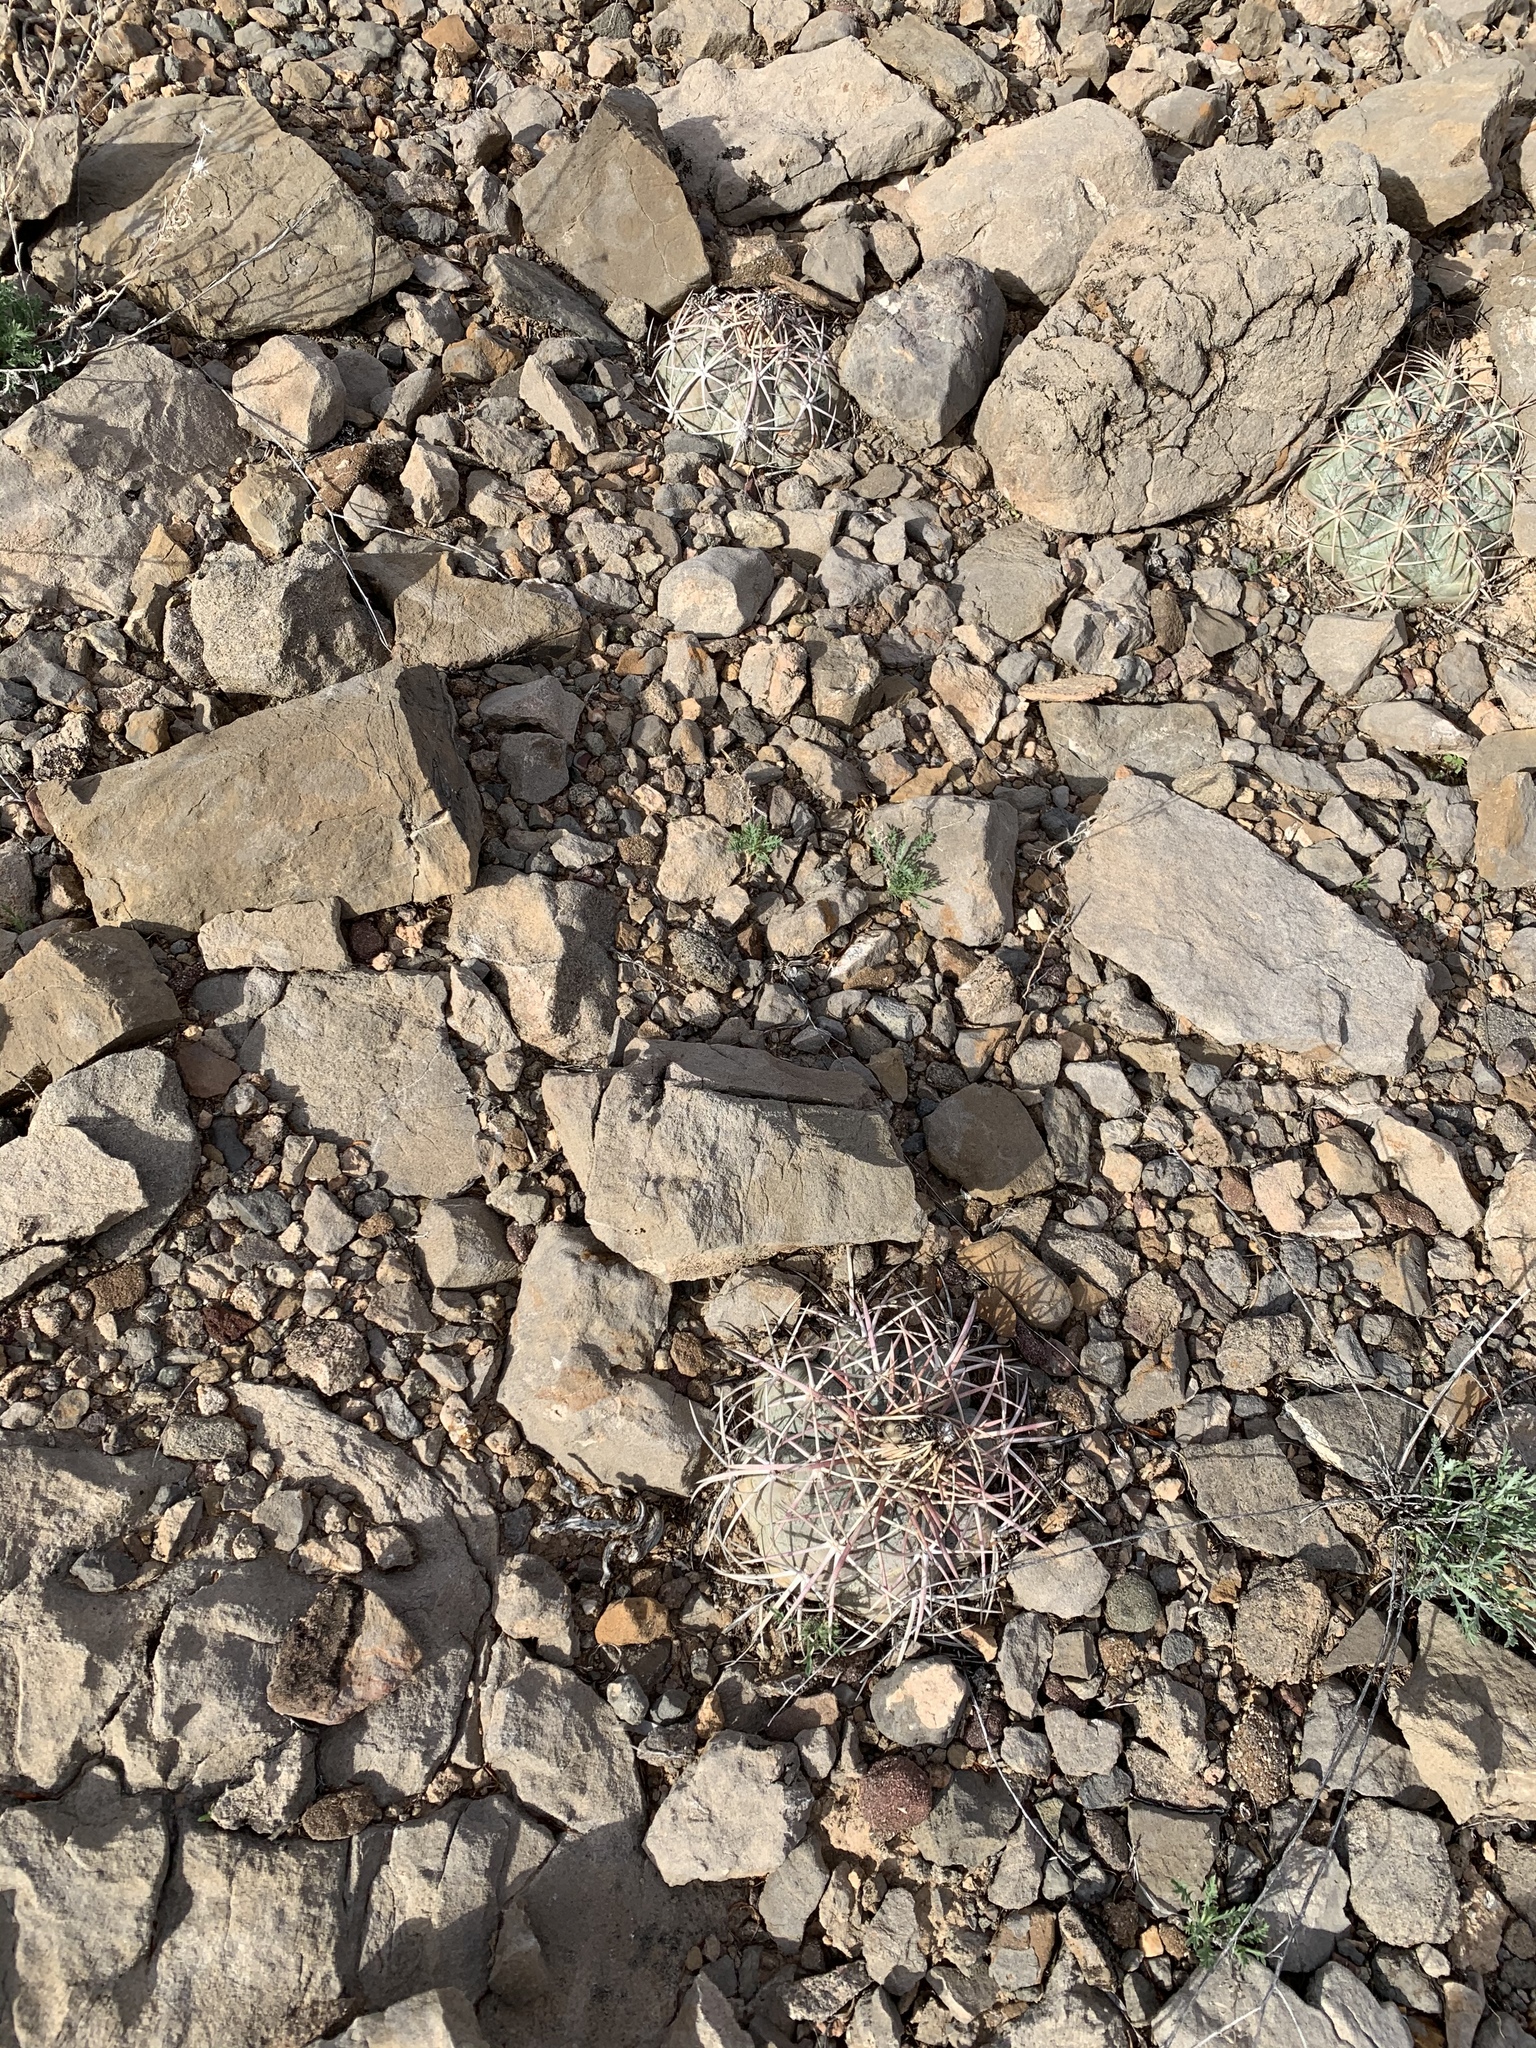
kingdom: Plantae
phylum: Tracheophyta
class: Magnoliopsida
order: Caryophyllales
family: Cactaceae
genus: Echinocactus
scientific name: Echinocactus horizonthalonius
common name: Devilshead
